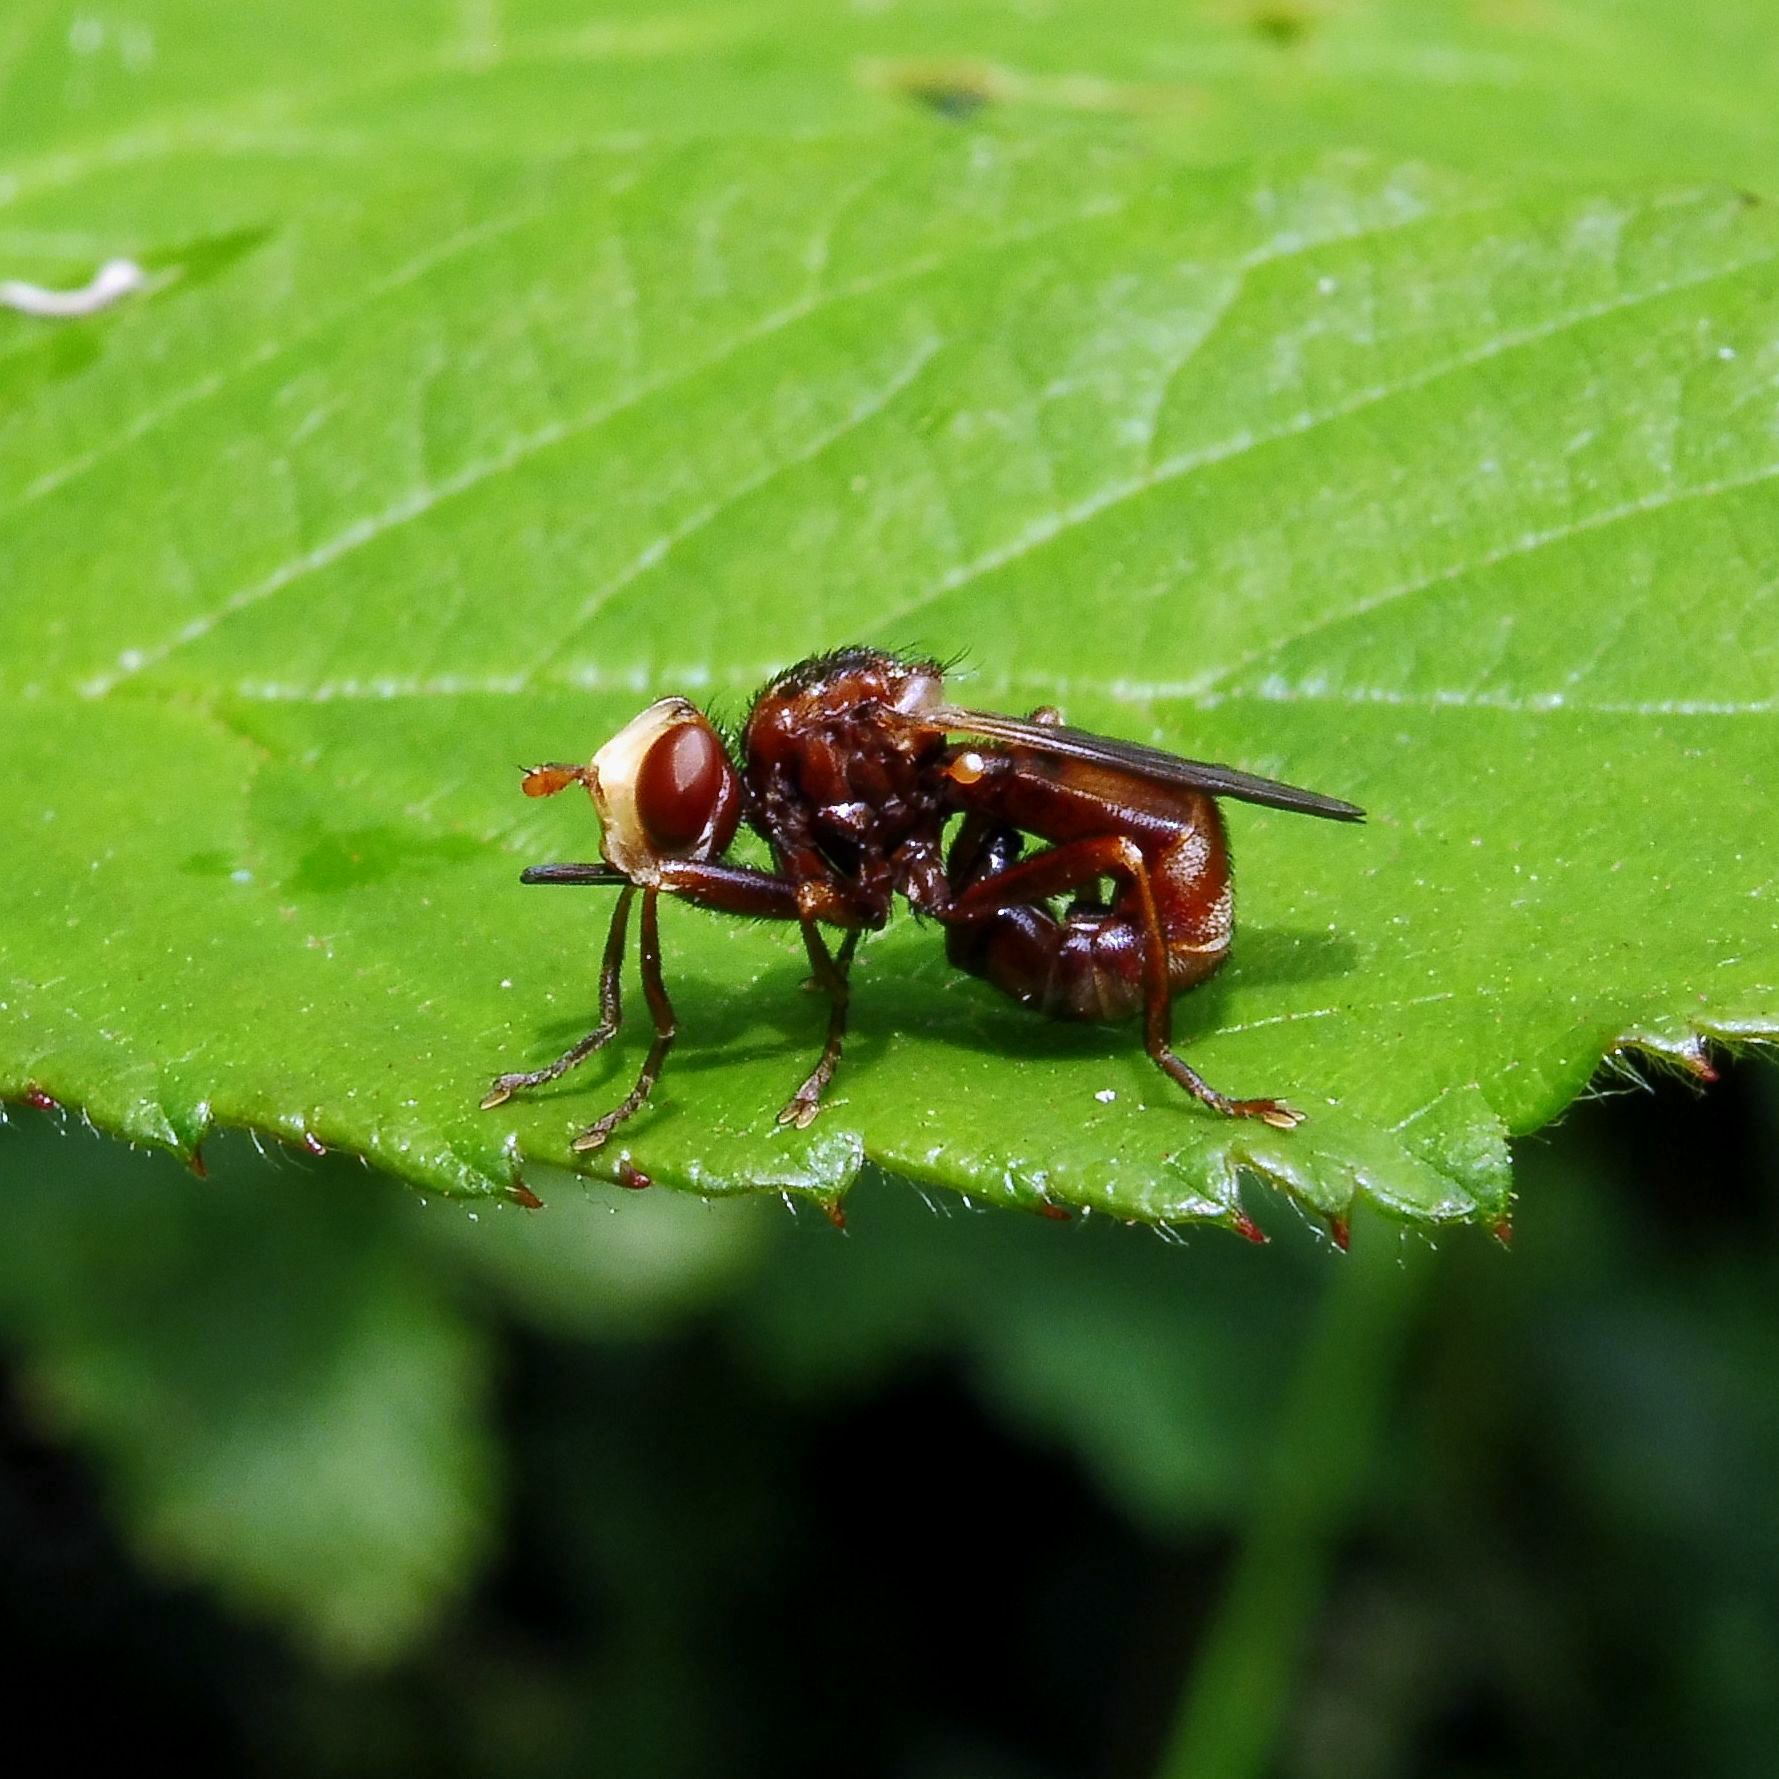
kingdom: Animalia
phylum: Arthropoda
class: Insecta
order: Diptera
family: Conopidae
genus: Sicus
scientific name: Sicus ferrugineus
